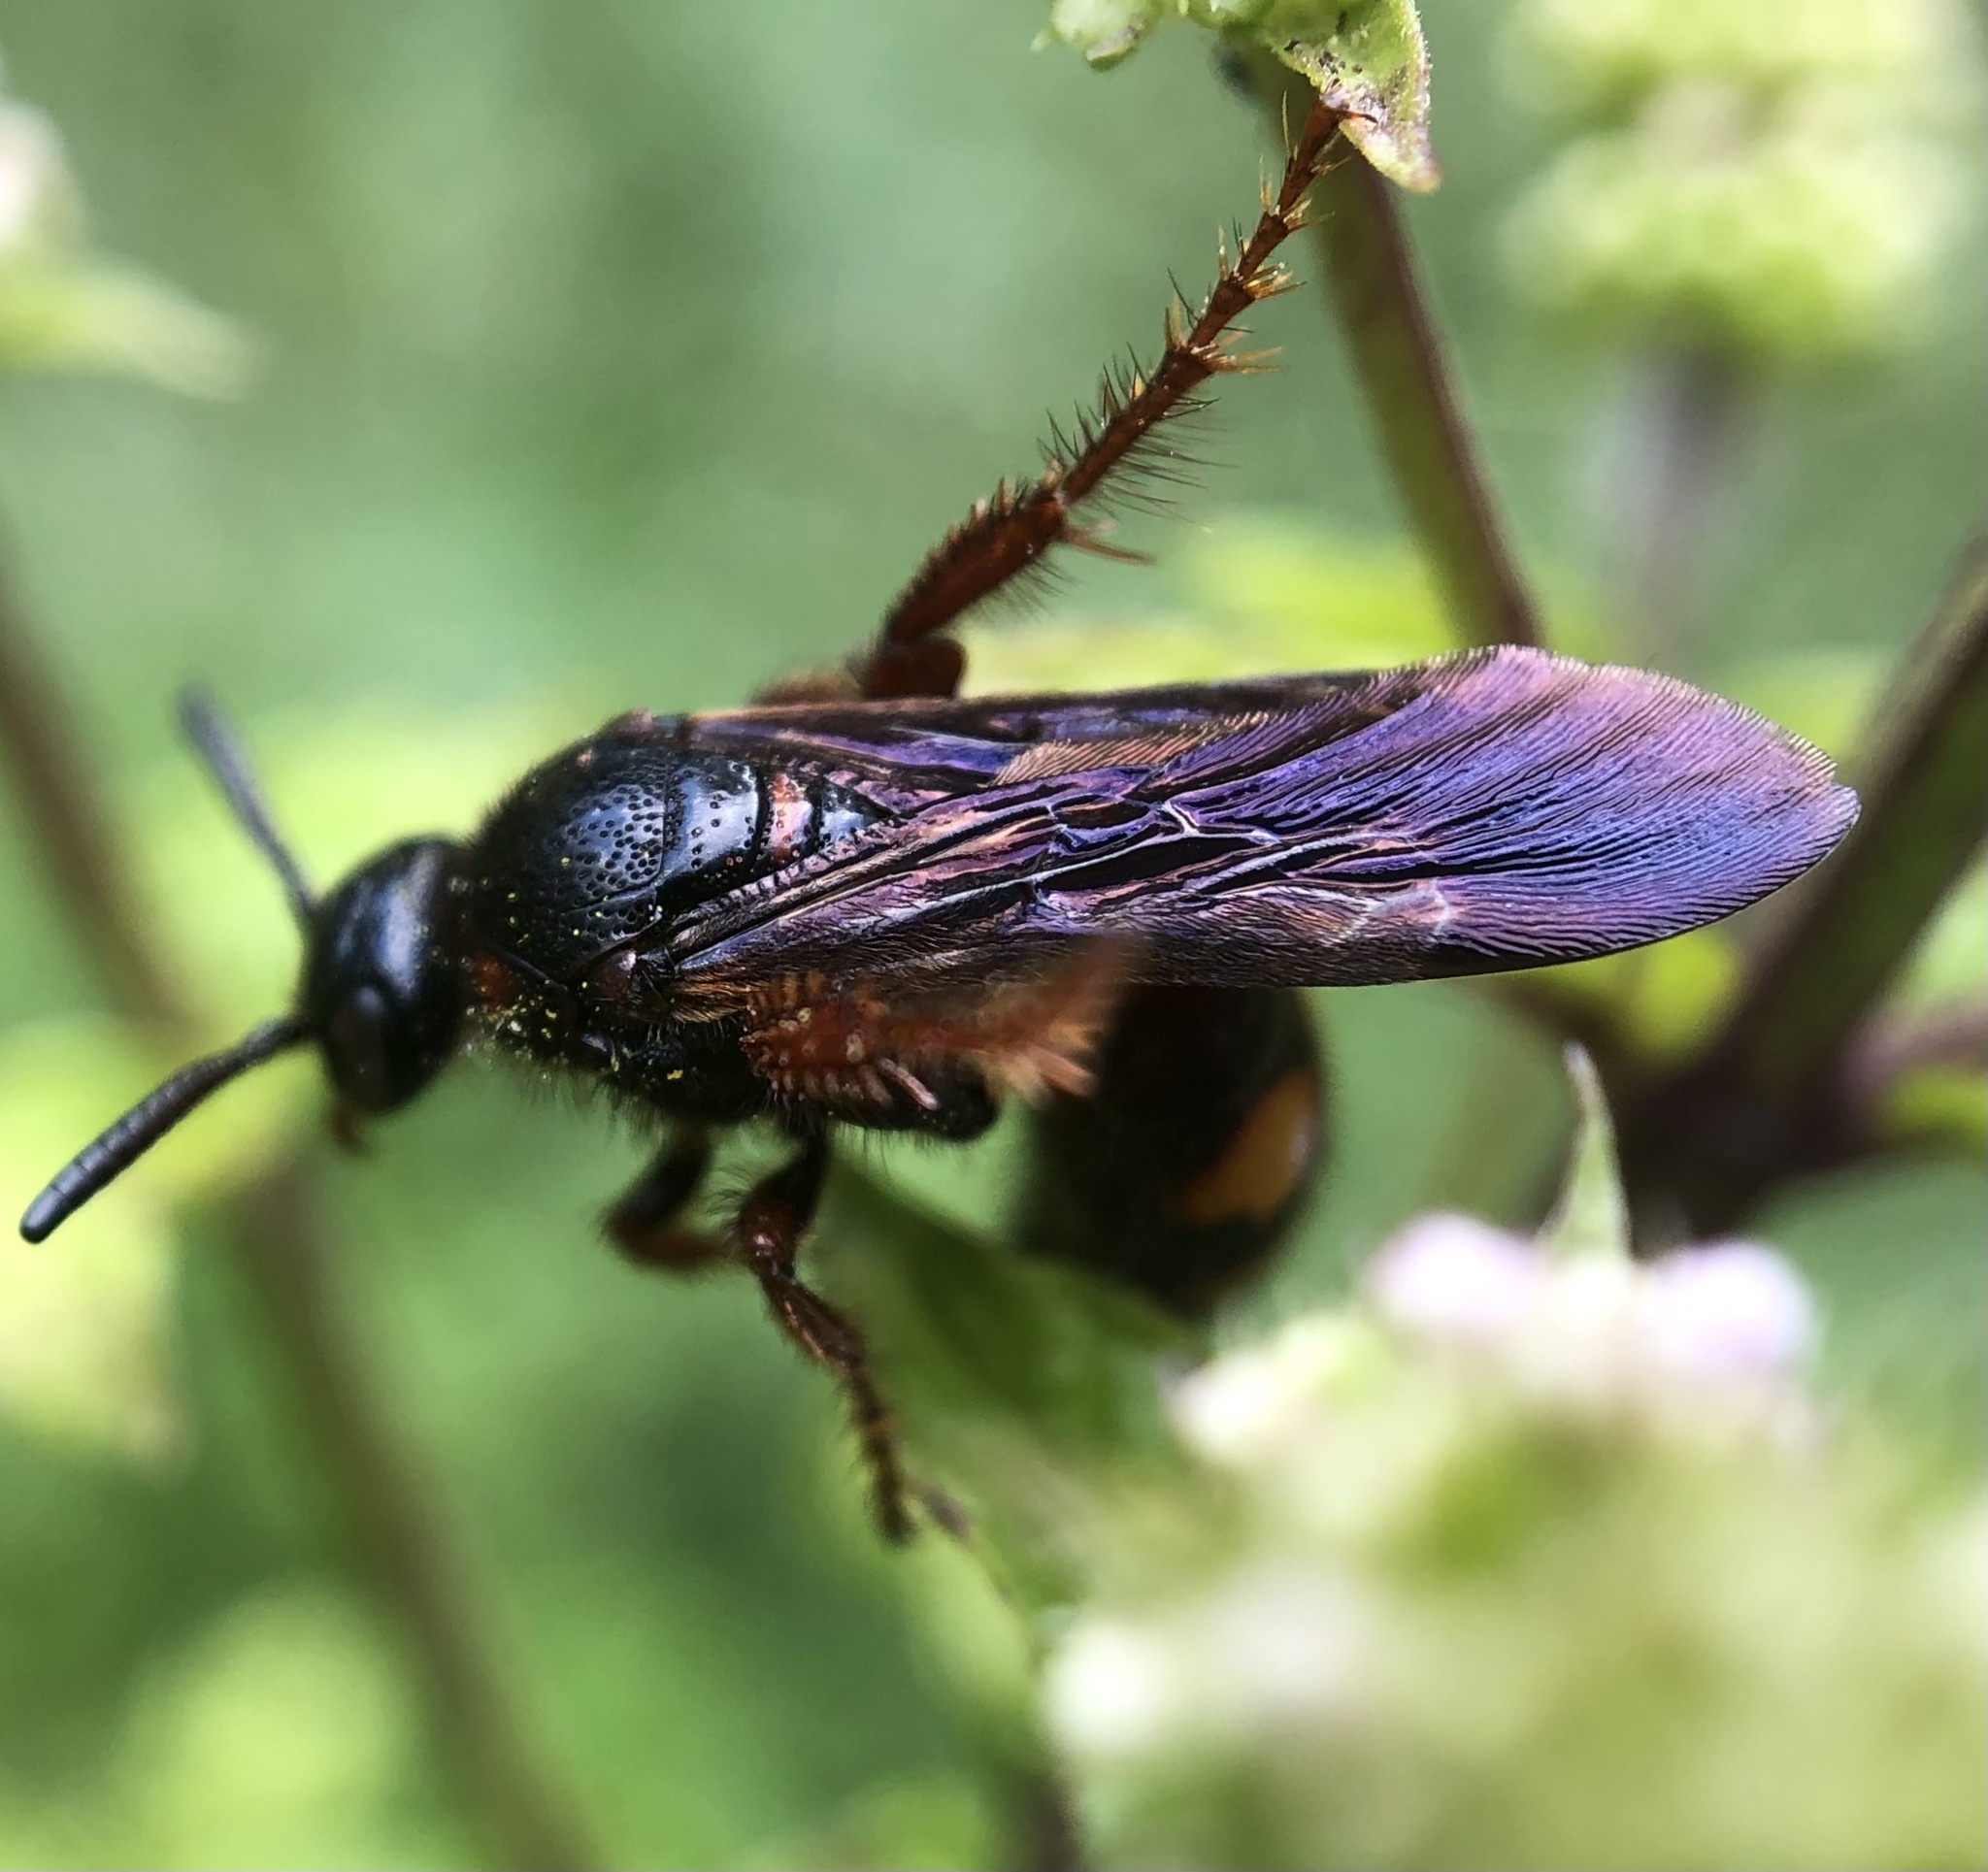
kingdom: Animalia
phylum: Arthropoda
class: Insecta
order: Hymenoptera
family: Scoliidae
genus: Scolia
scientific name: Scolia nobilitata
